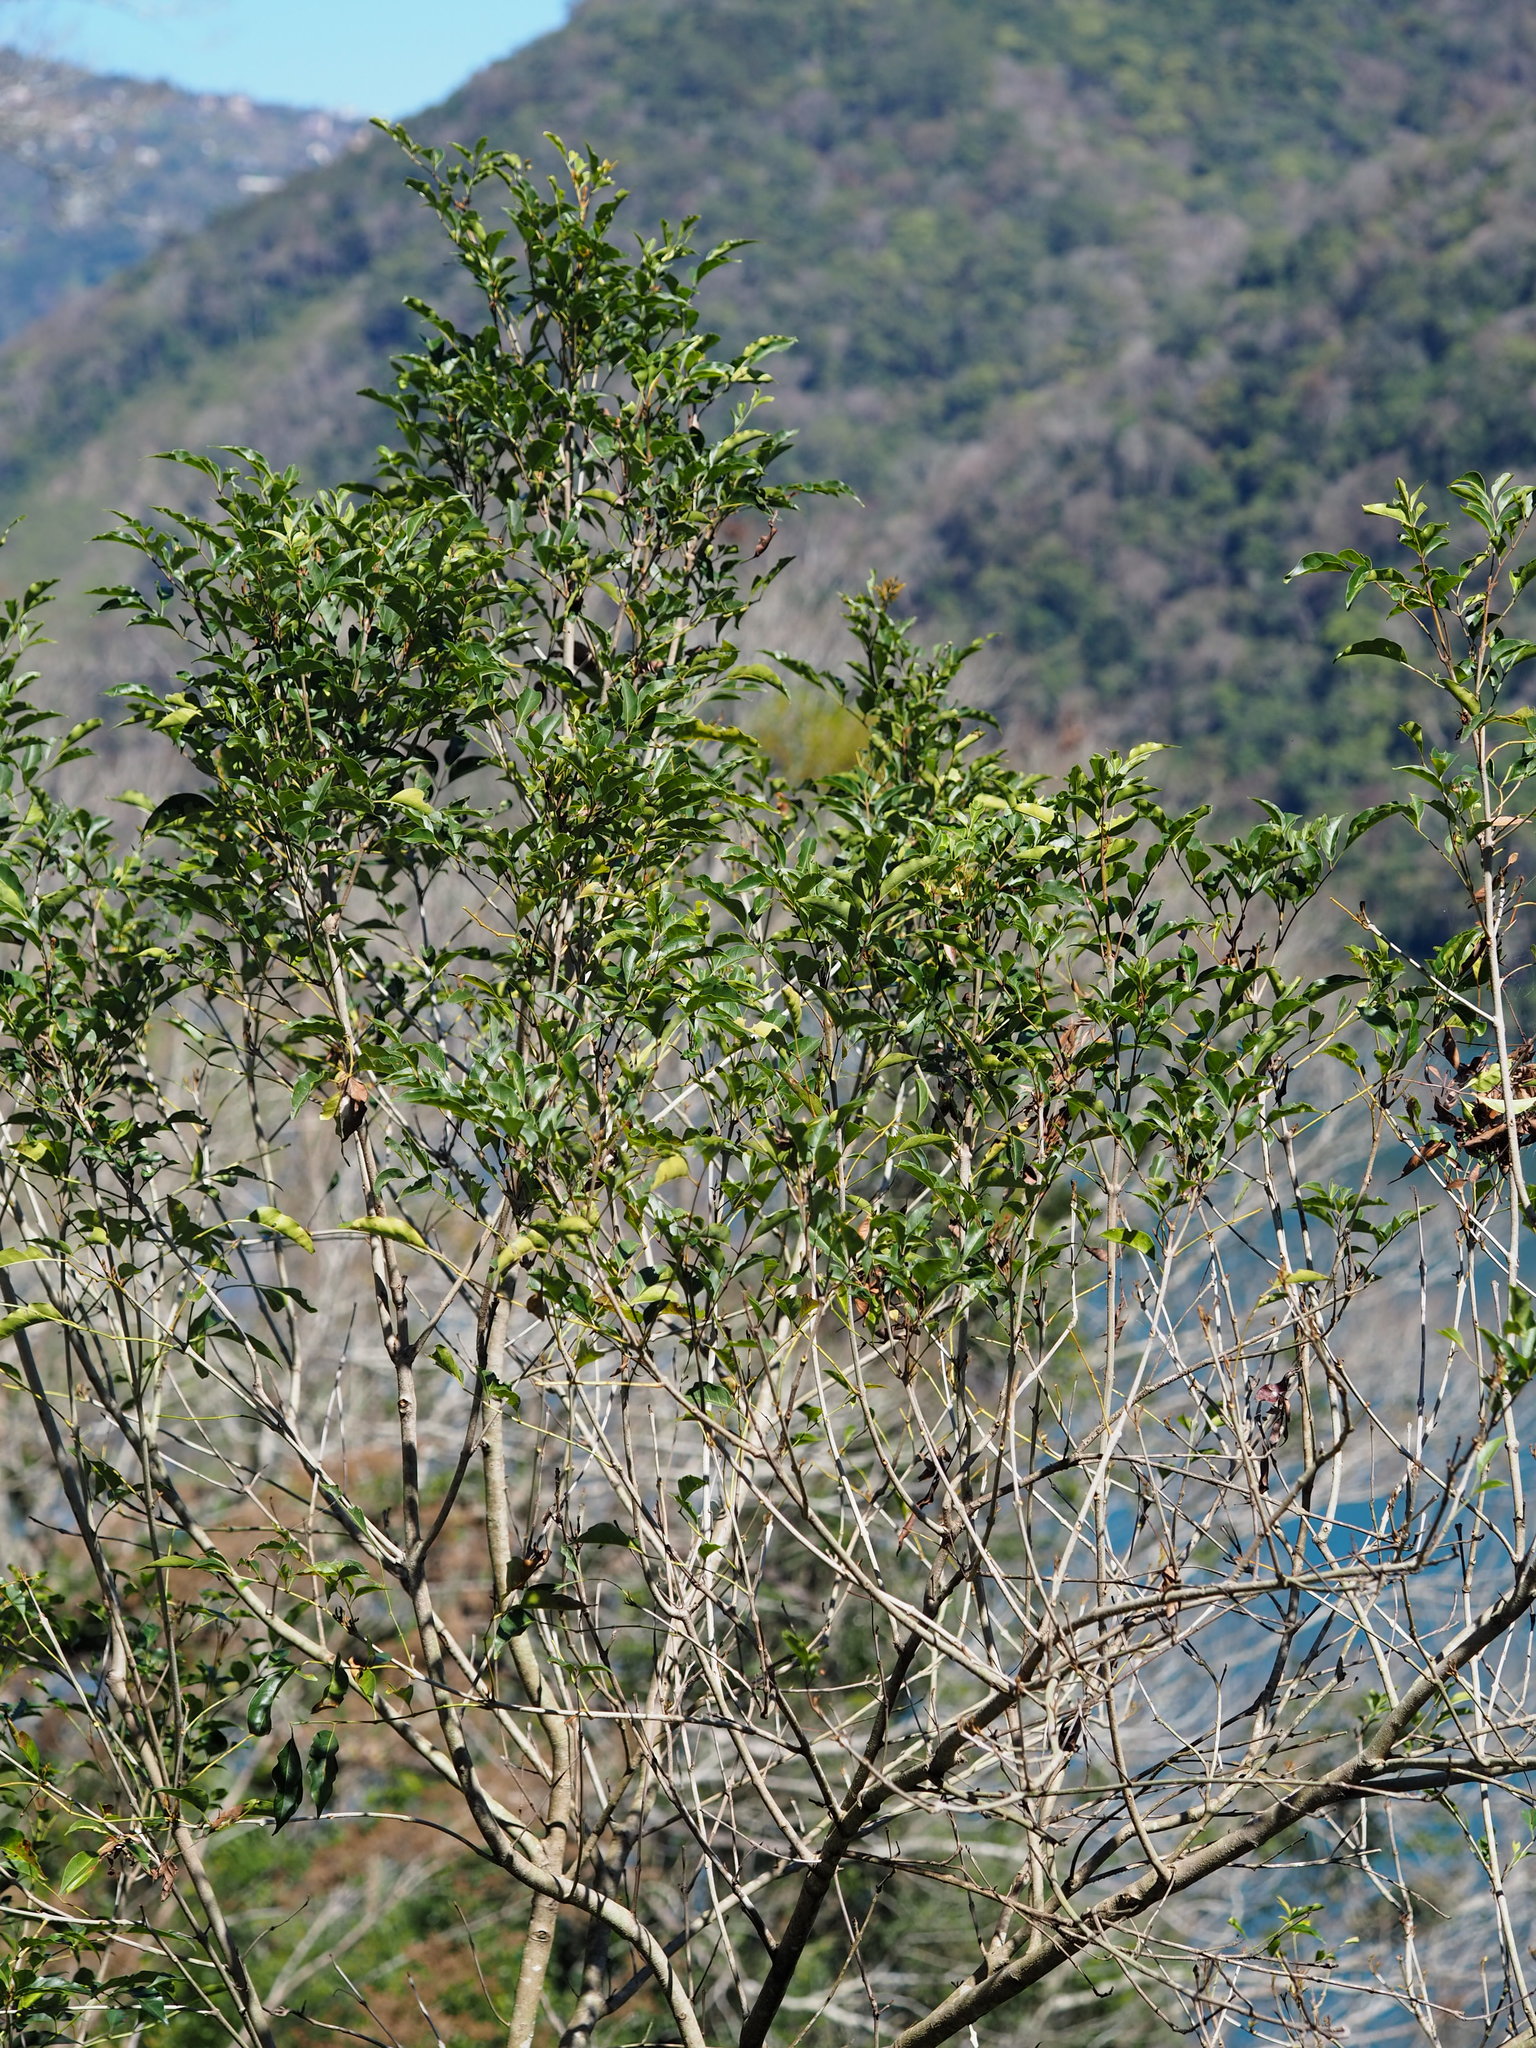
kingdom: Plantae
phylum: Tracheophyta
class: Magnoliopsida
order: Lamiales
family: Oleaceae
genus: Fraxinus
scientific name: Fraxinus griffithii
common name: Himalayan ash
